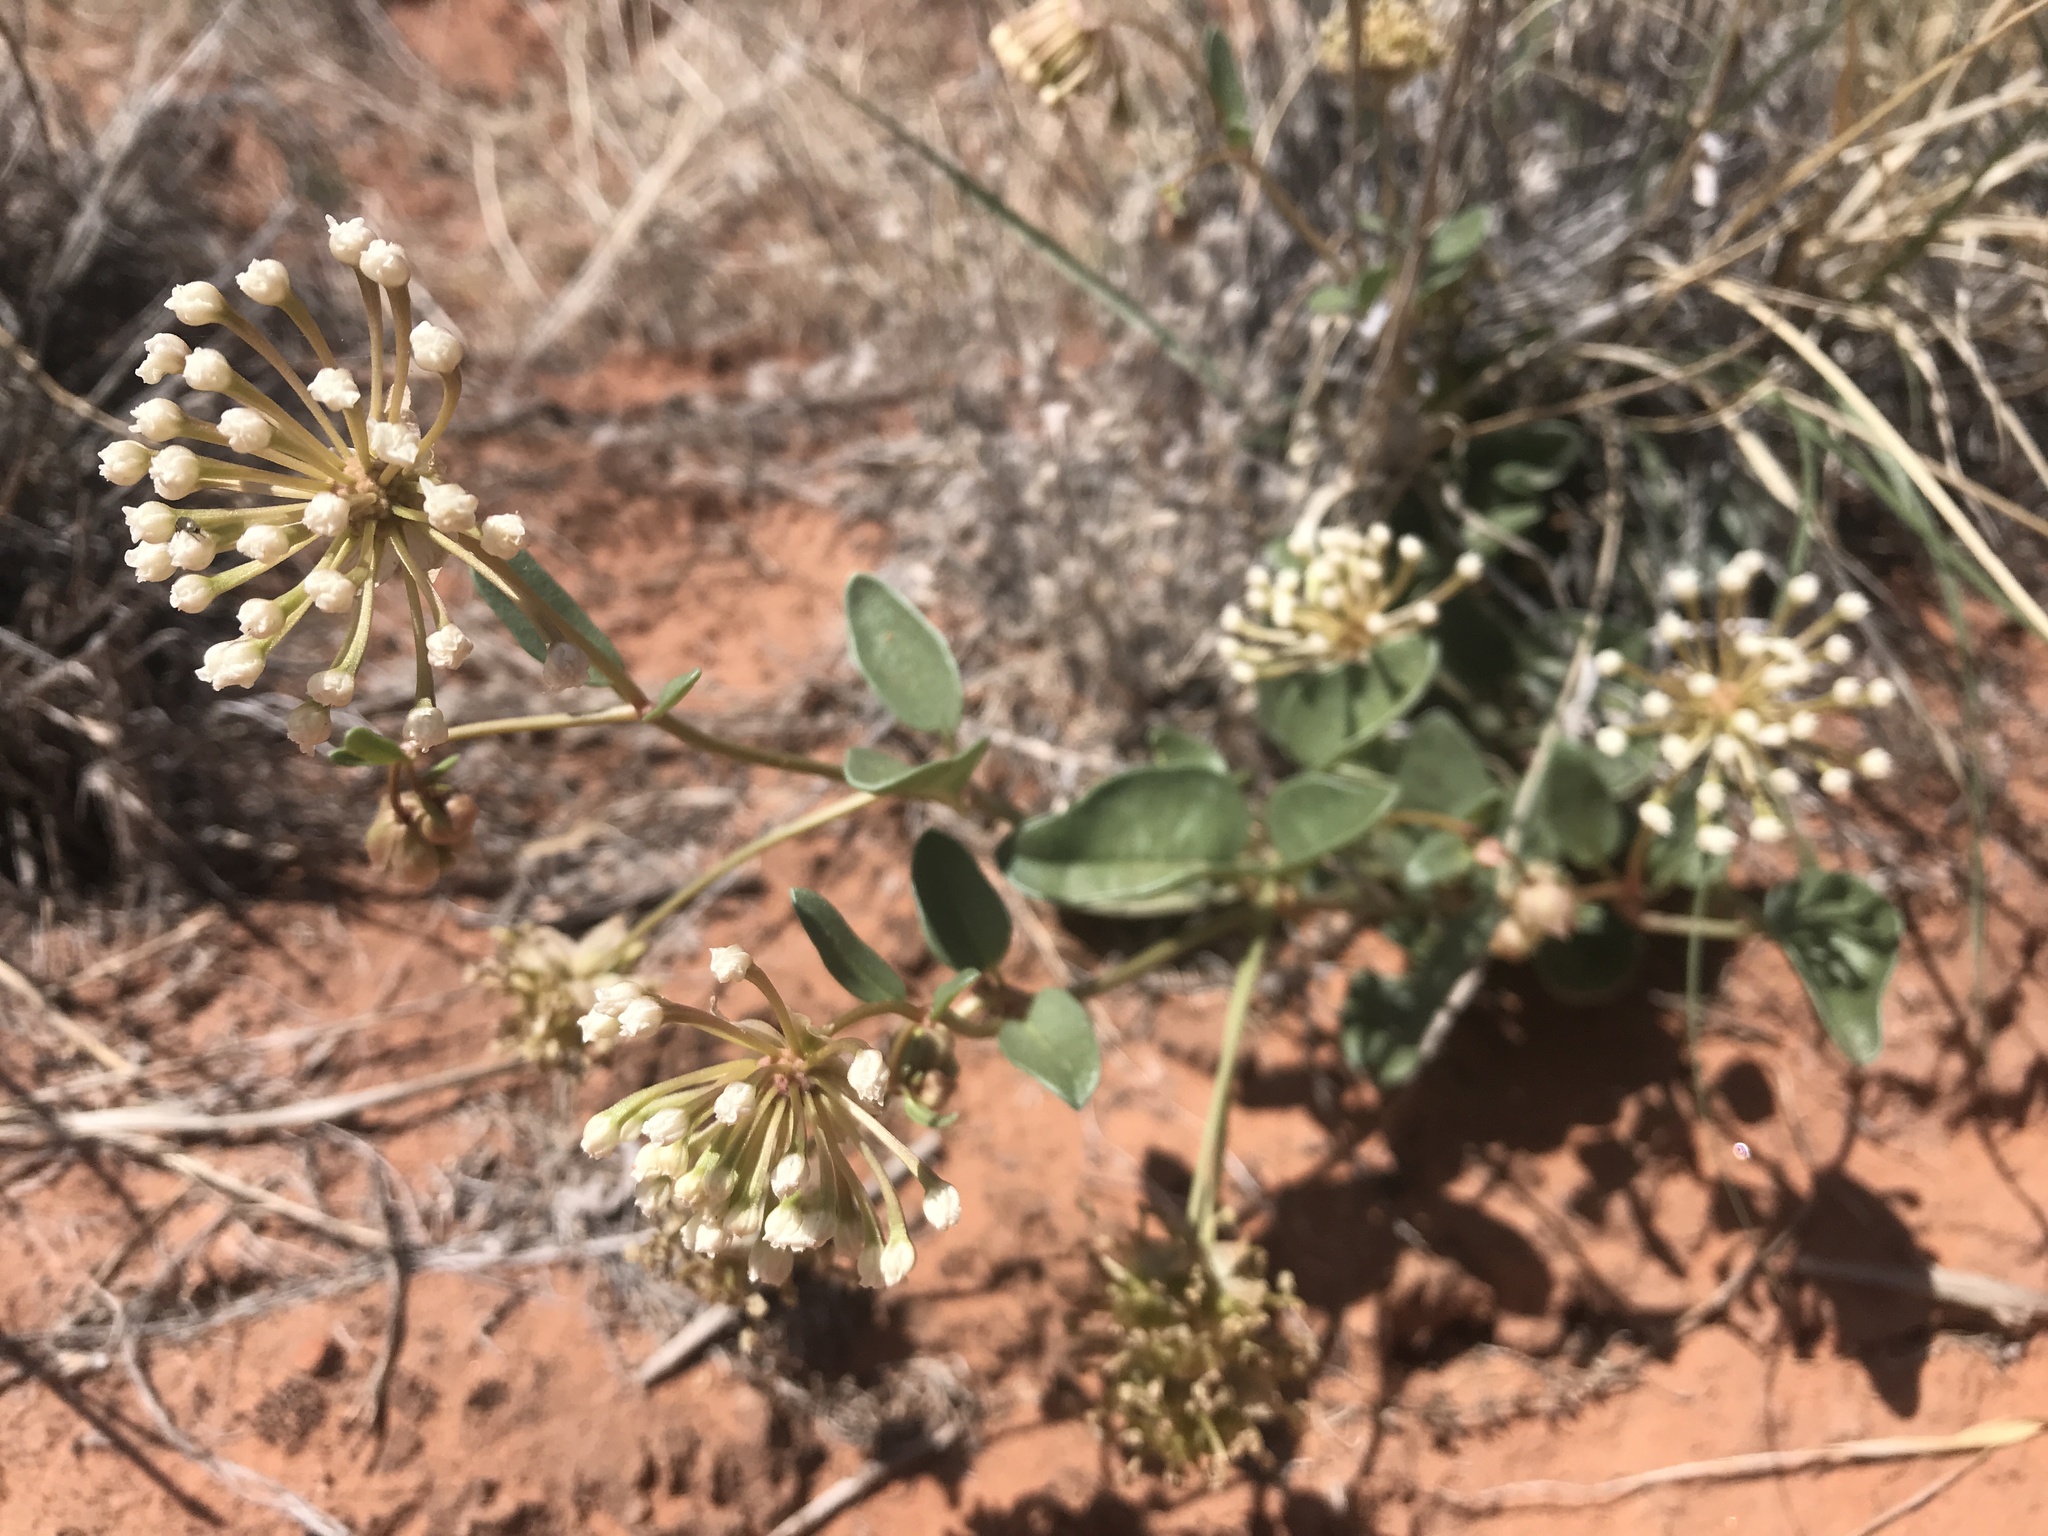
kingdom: Plantae
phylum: Tracheophyta
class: Magnoliopsida
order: Caryophyllales
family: Nyctaginaceae
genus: Abronia
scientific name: Abronia elliptica
